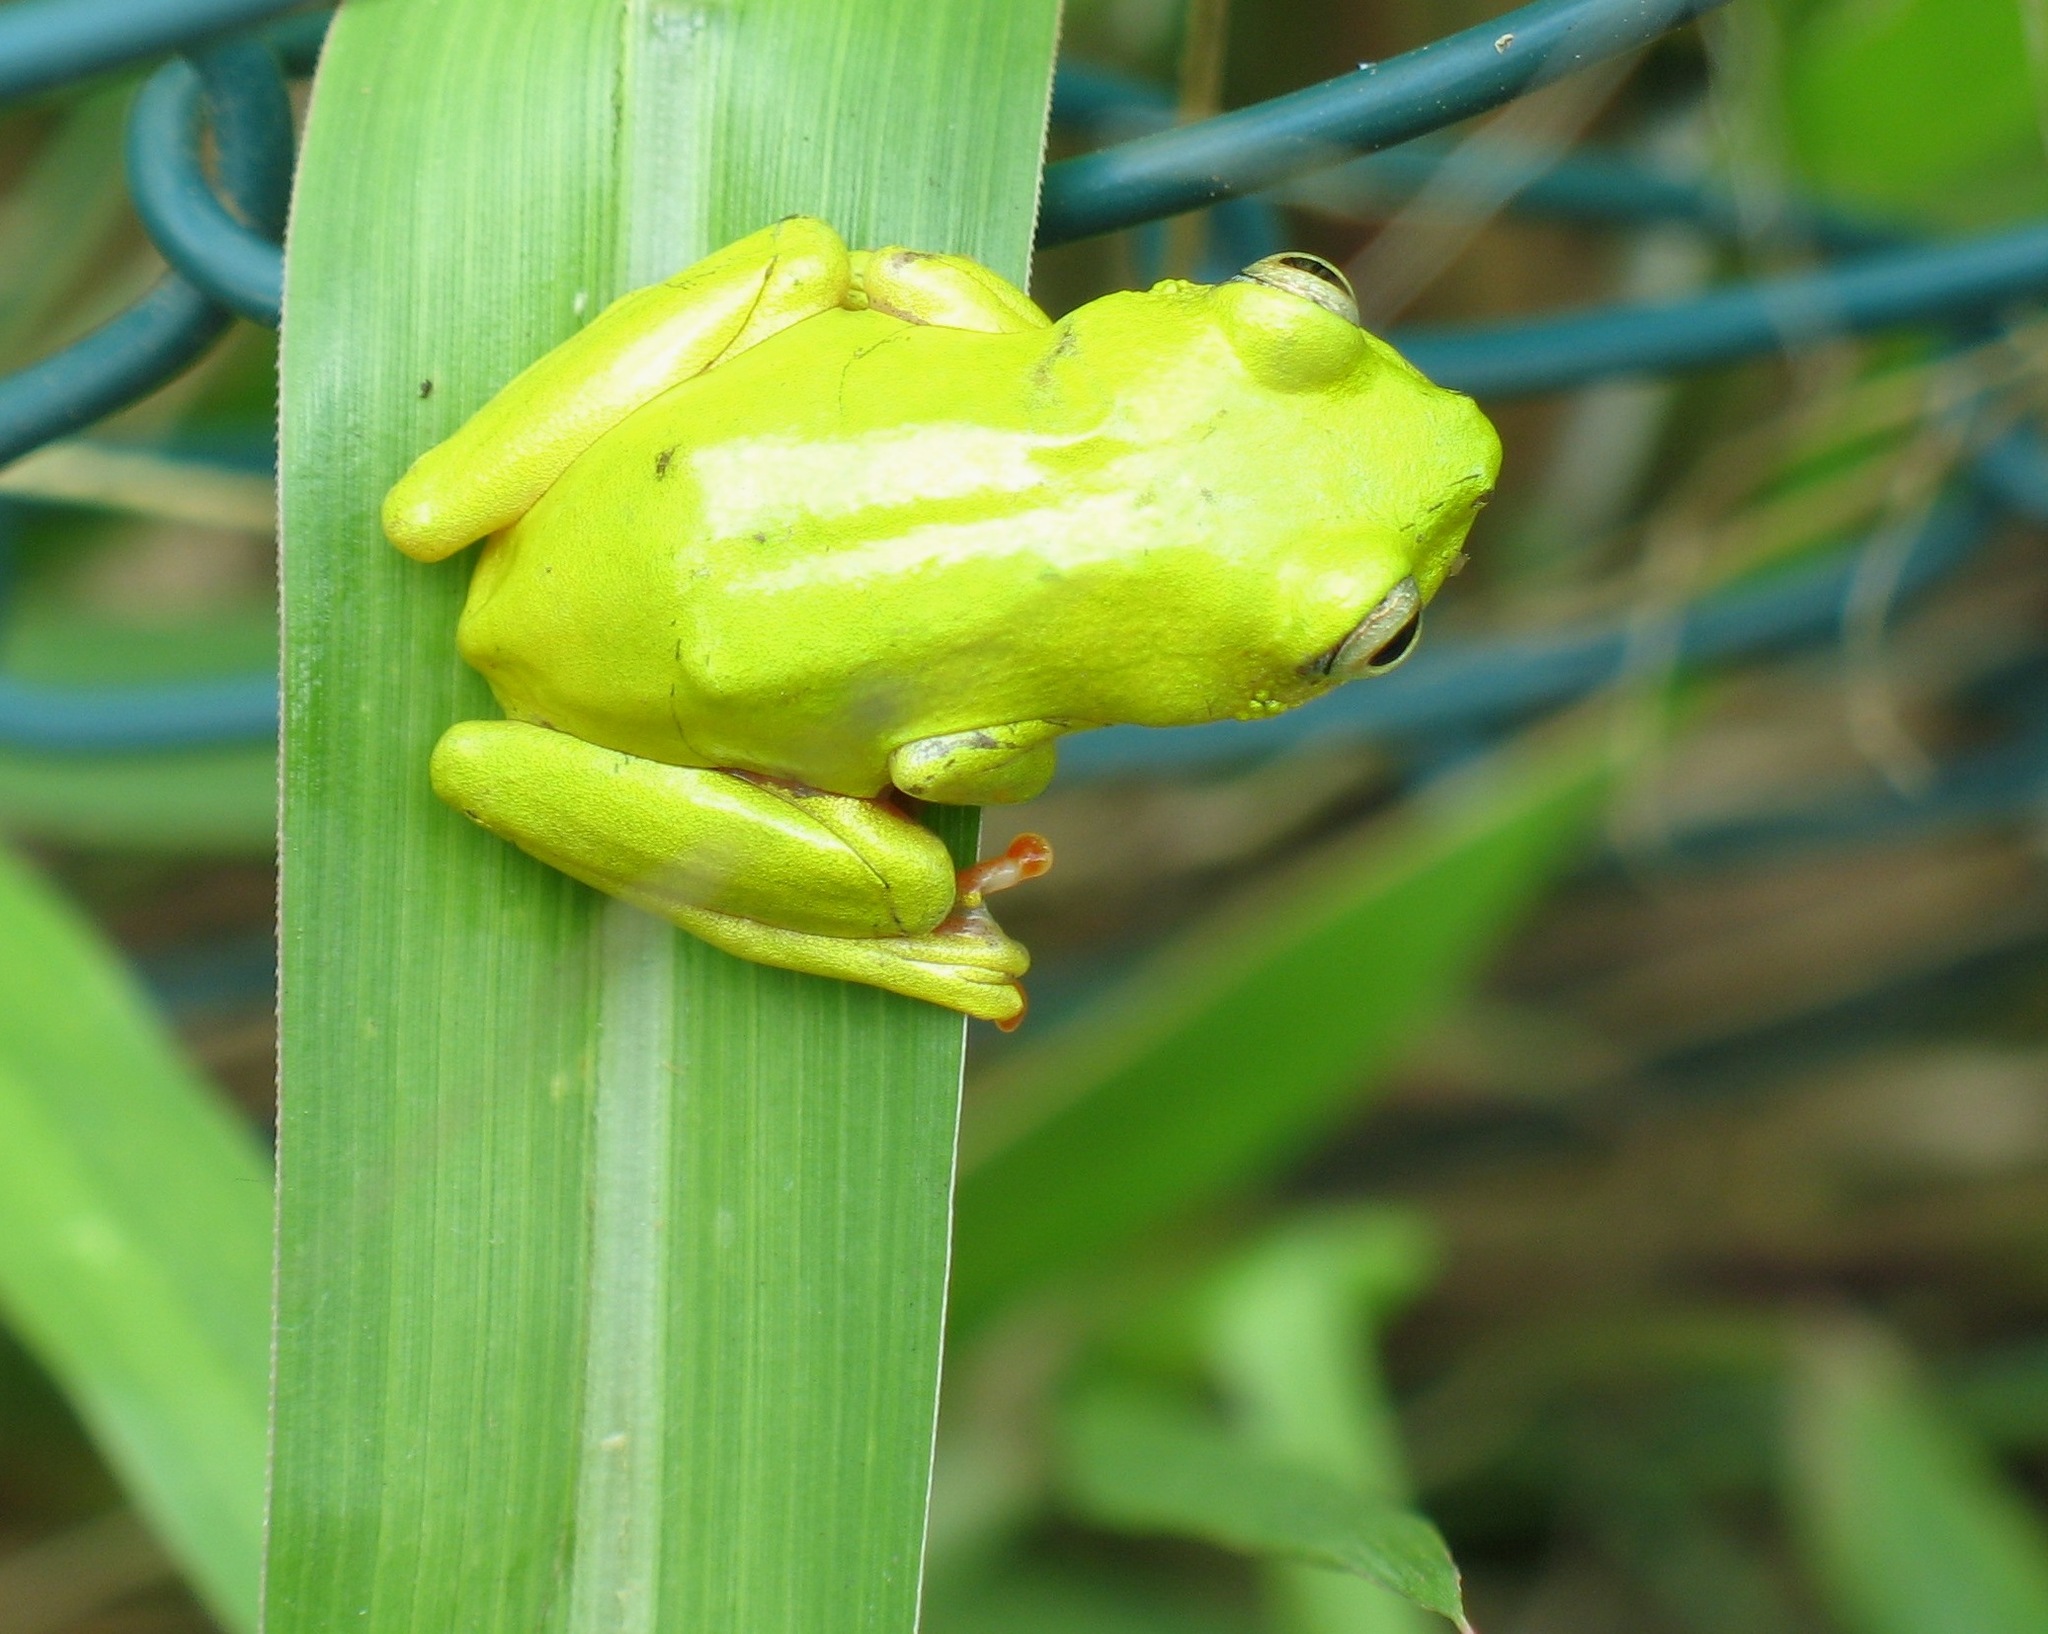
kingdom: Animalia
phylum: Chordata
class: Amphibia
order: Anura
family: Hyperoliidae
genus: Hyperolius
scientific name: Hyperolius olivaceus
